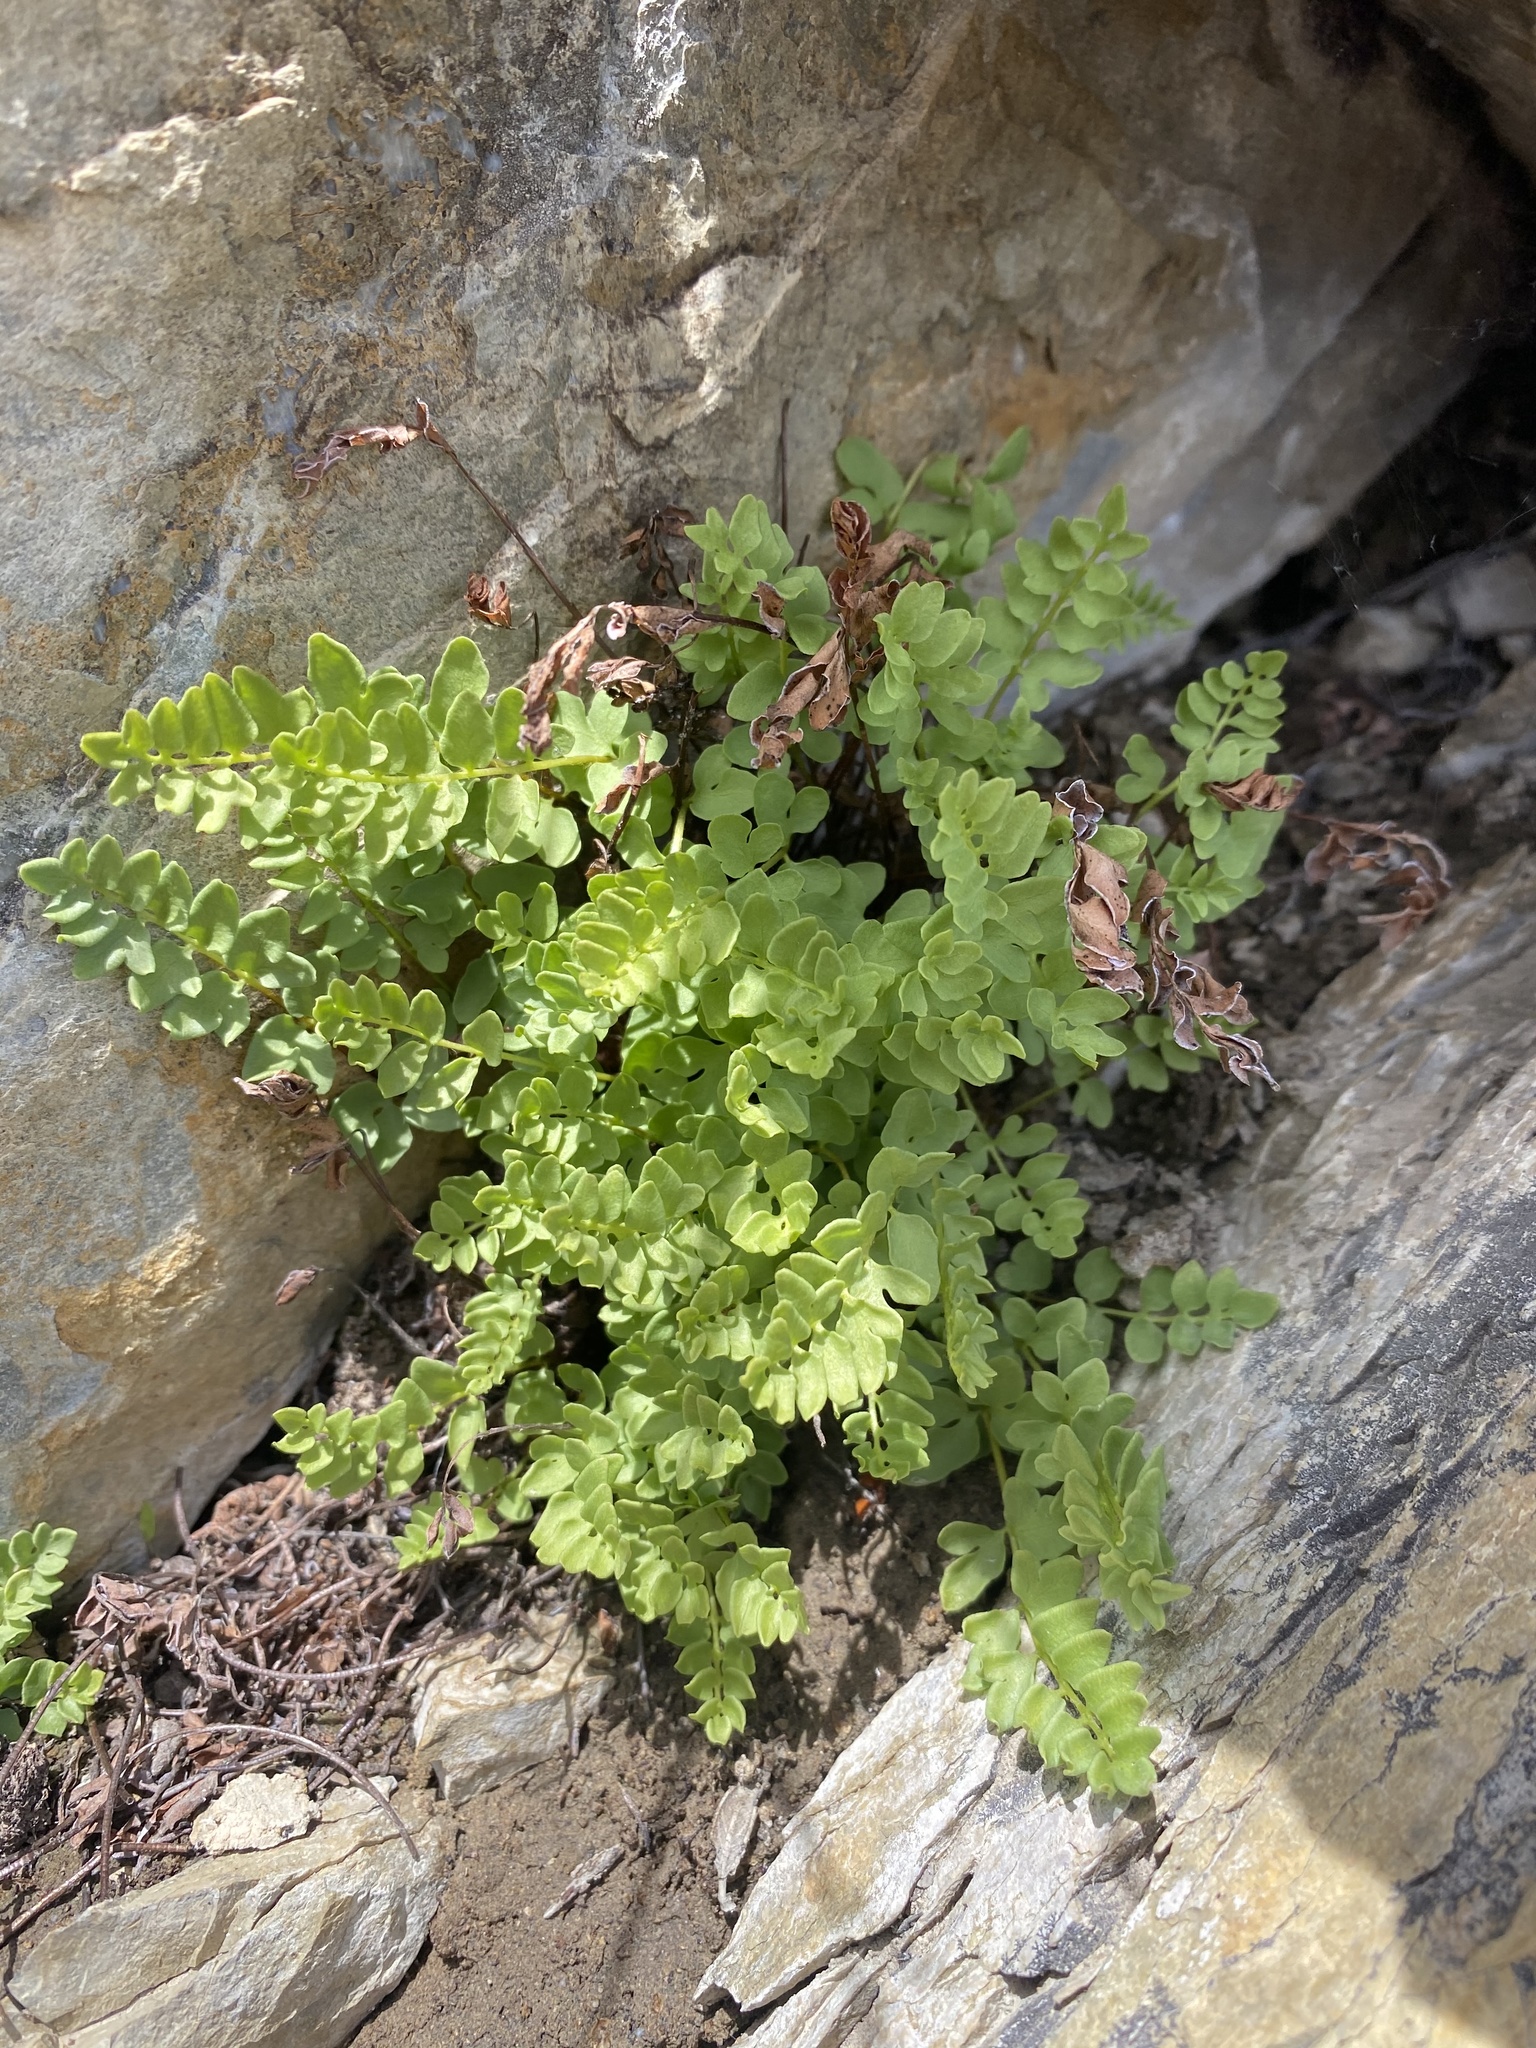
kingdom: Plantae
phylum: Tracheophyta
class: Polypodiopsida
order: Polypodiales
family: Pteridaceae
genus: Pellaea
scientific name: Pellaea breweri
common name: Brewer's cliffbrake
